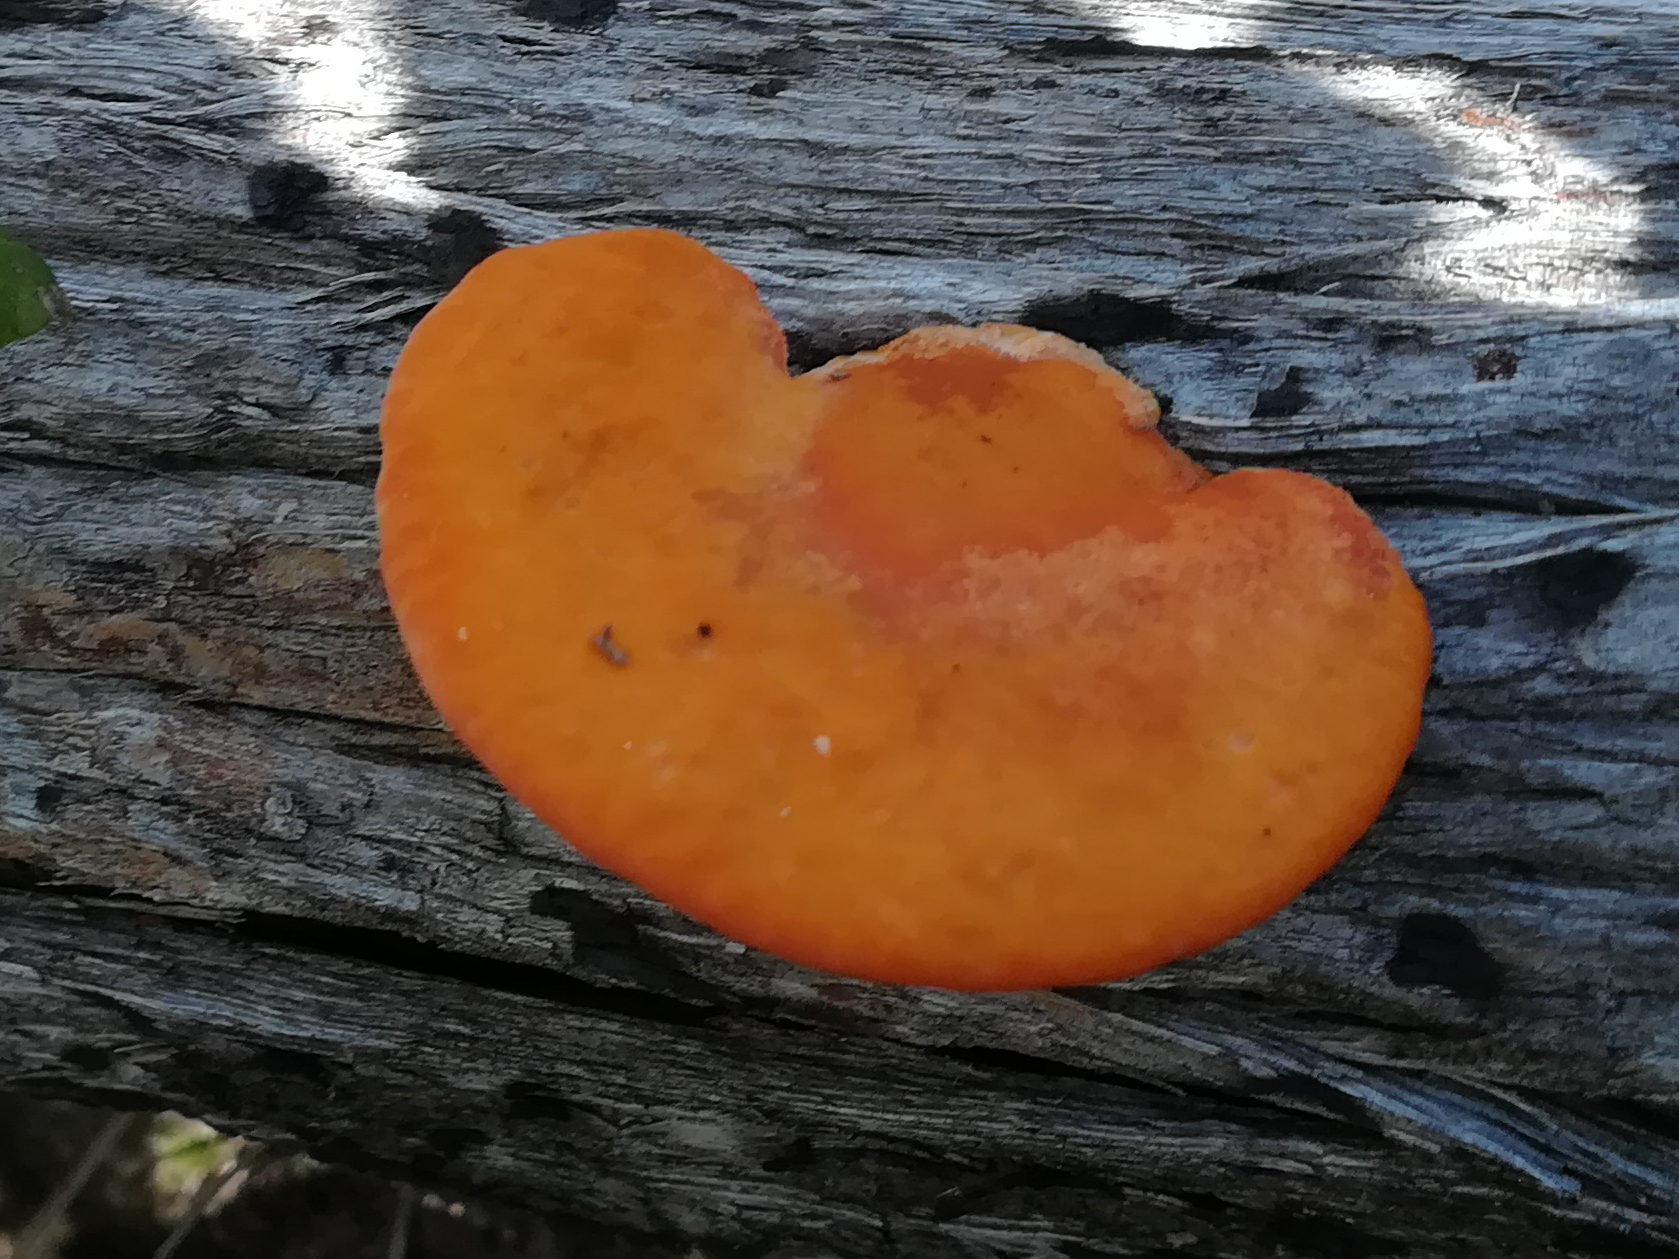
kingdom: Fungi
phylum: Basidiomycota
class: Agaricomycetes
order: Polyporales
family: Polyporaceae
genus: Trametes
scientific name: Trametes coccinea
